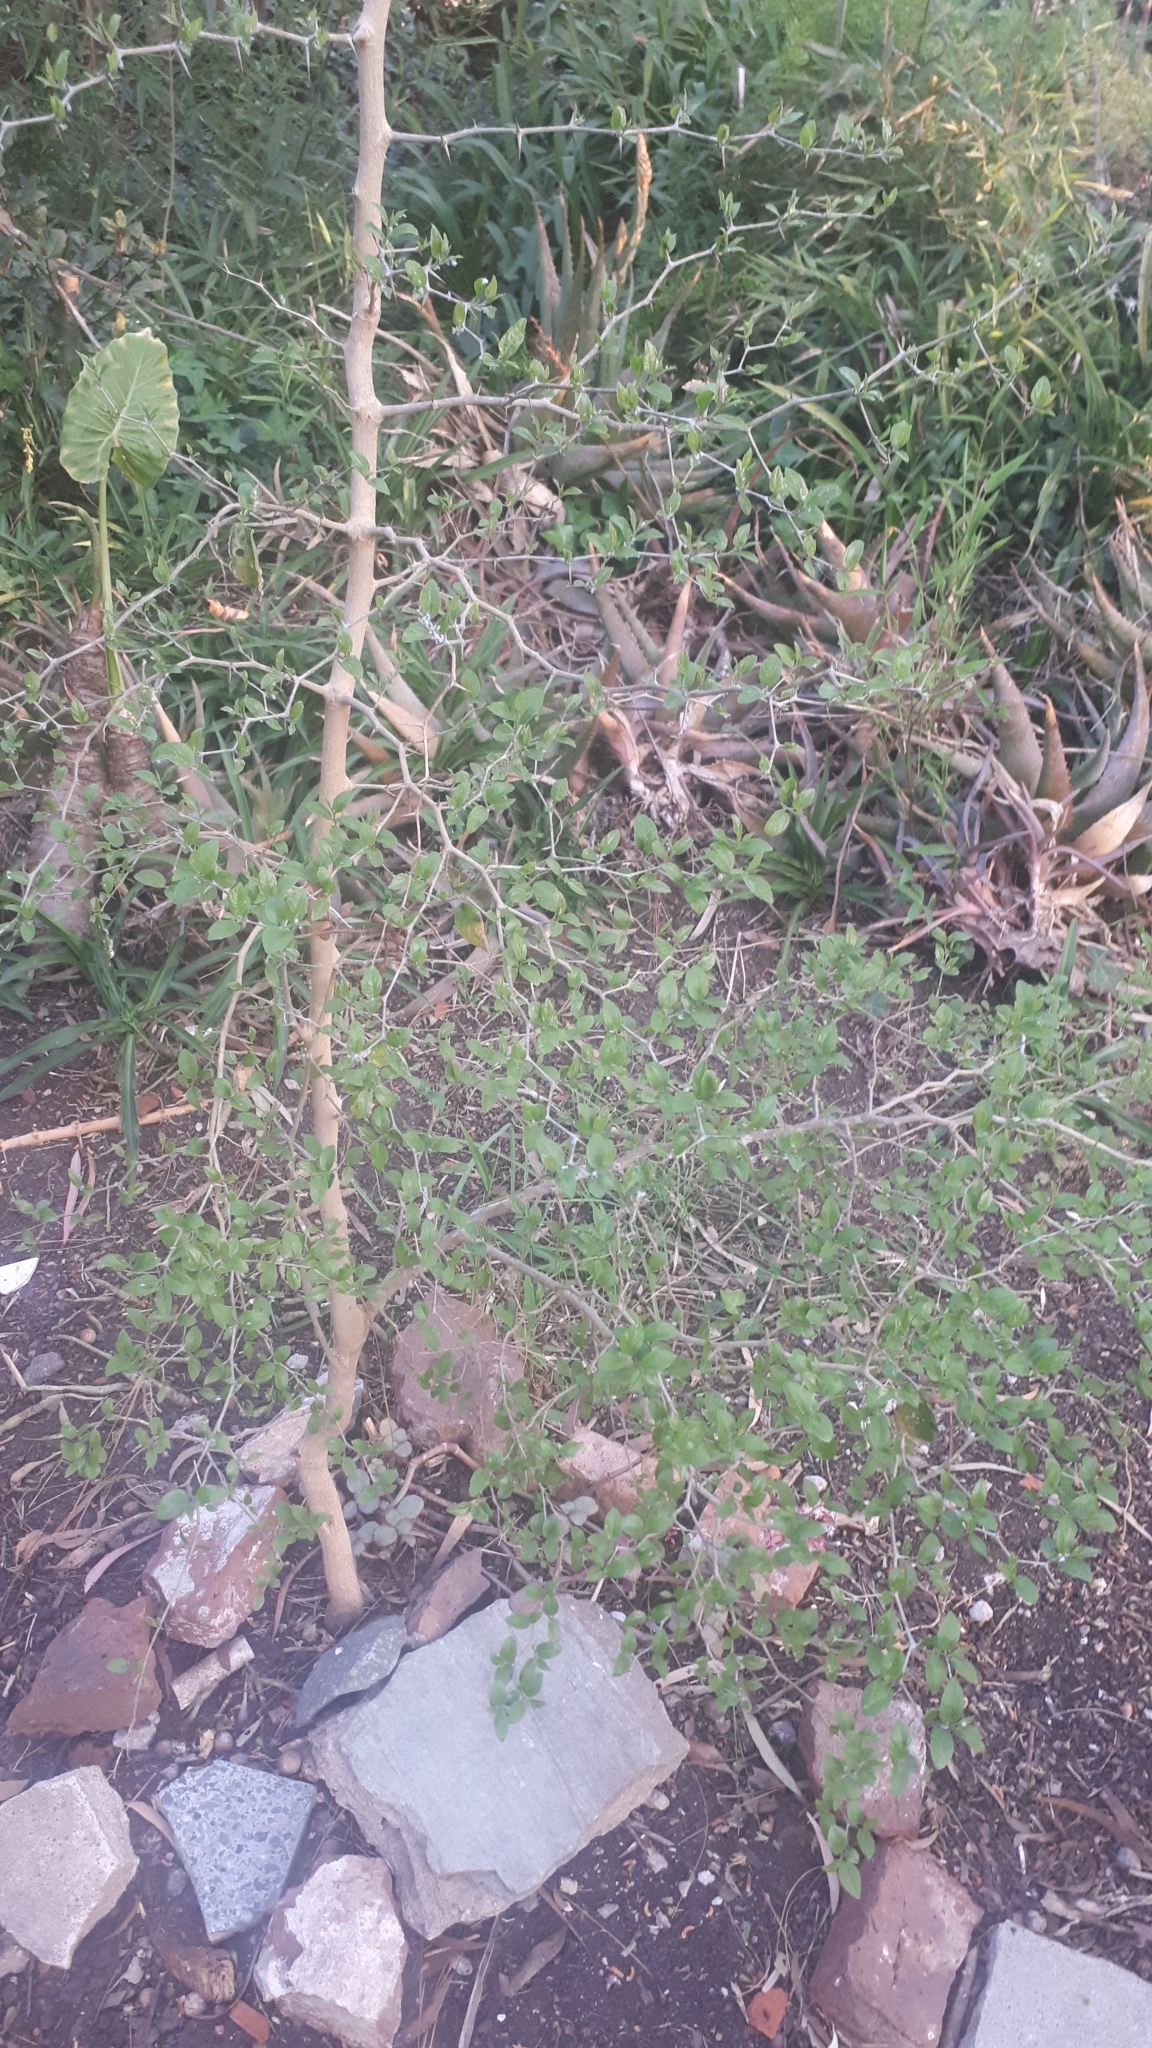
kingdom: Plantae
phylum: Tracheophyta
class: Magnoliopsida
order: Rosales
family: Cannabaceae
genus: Celtis
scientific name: Celtis tala
